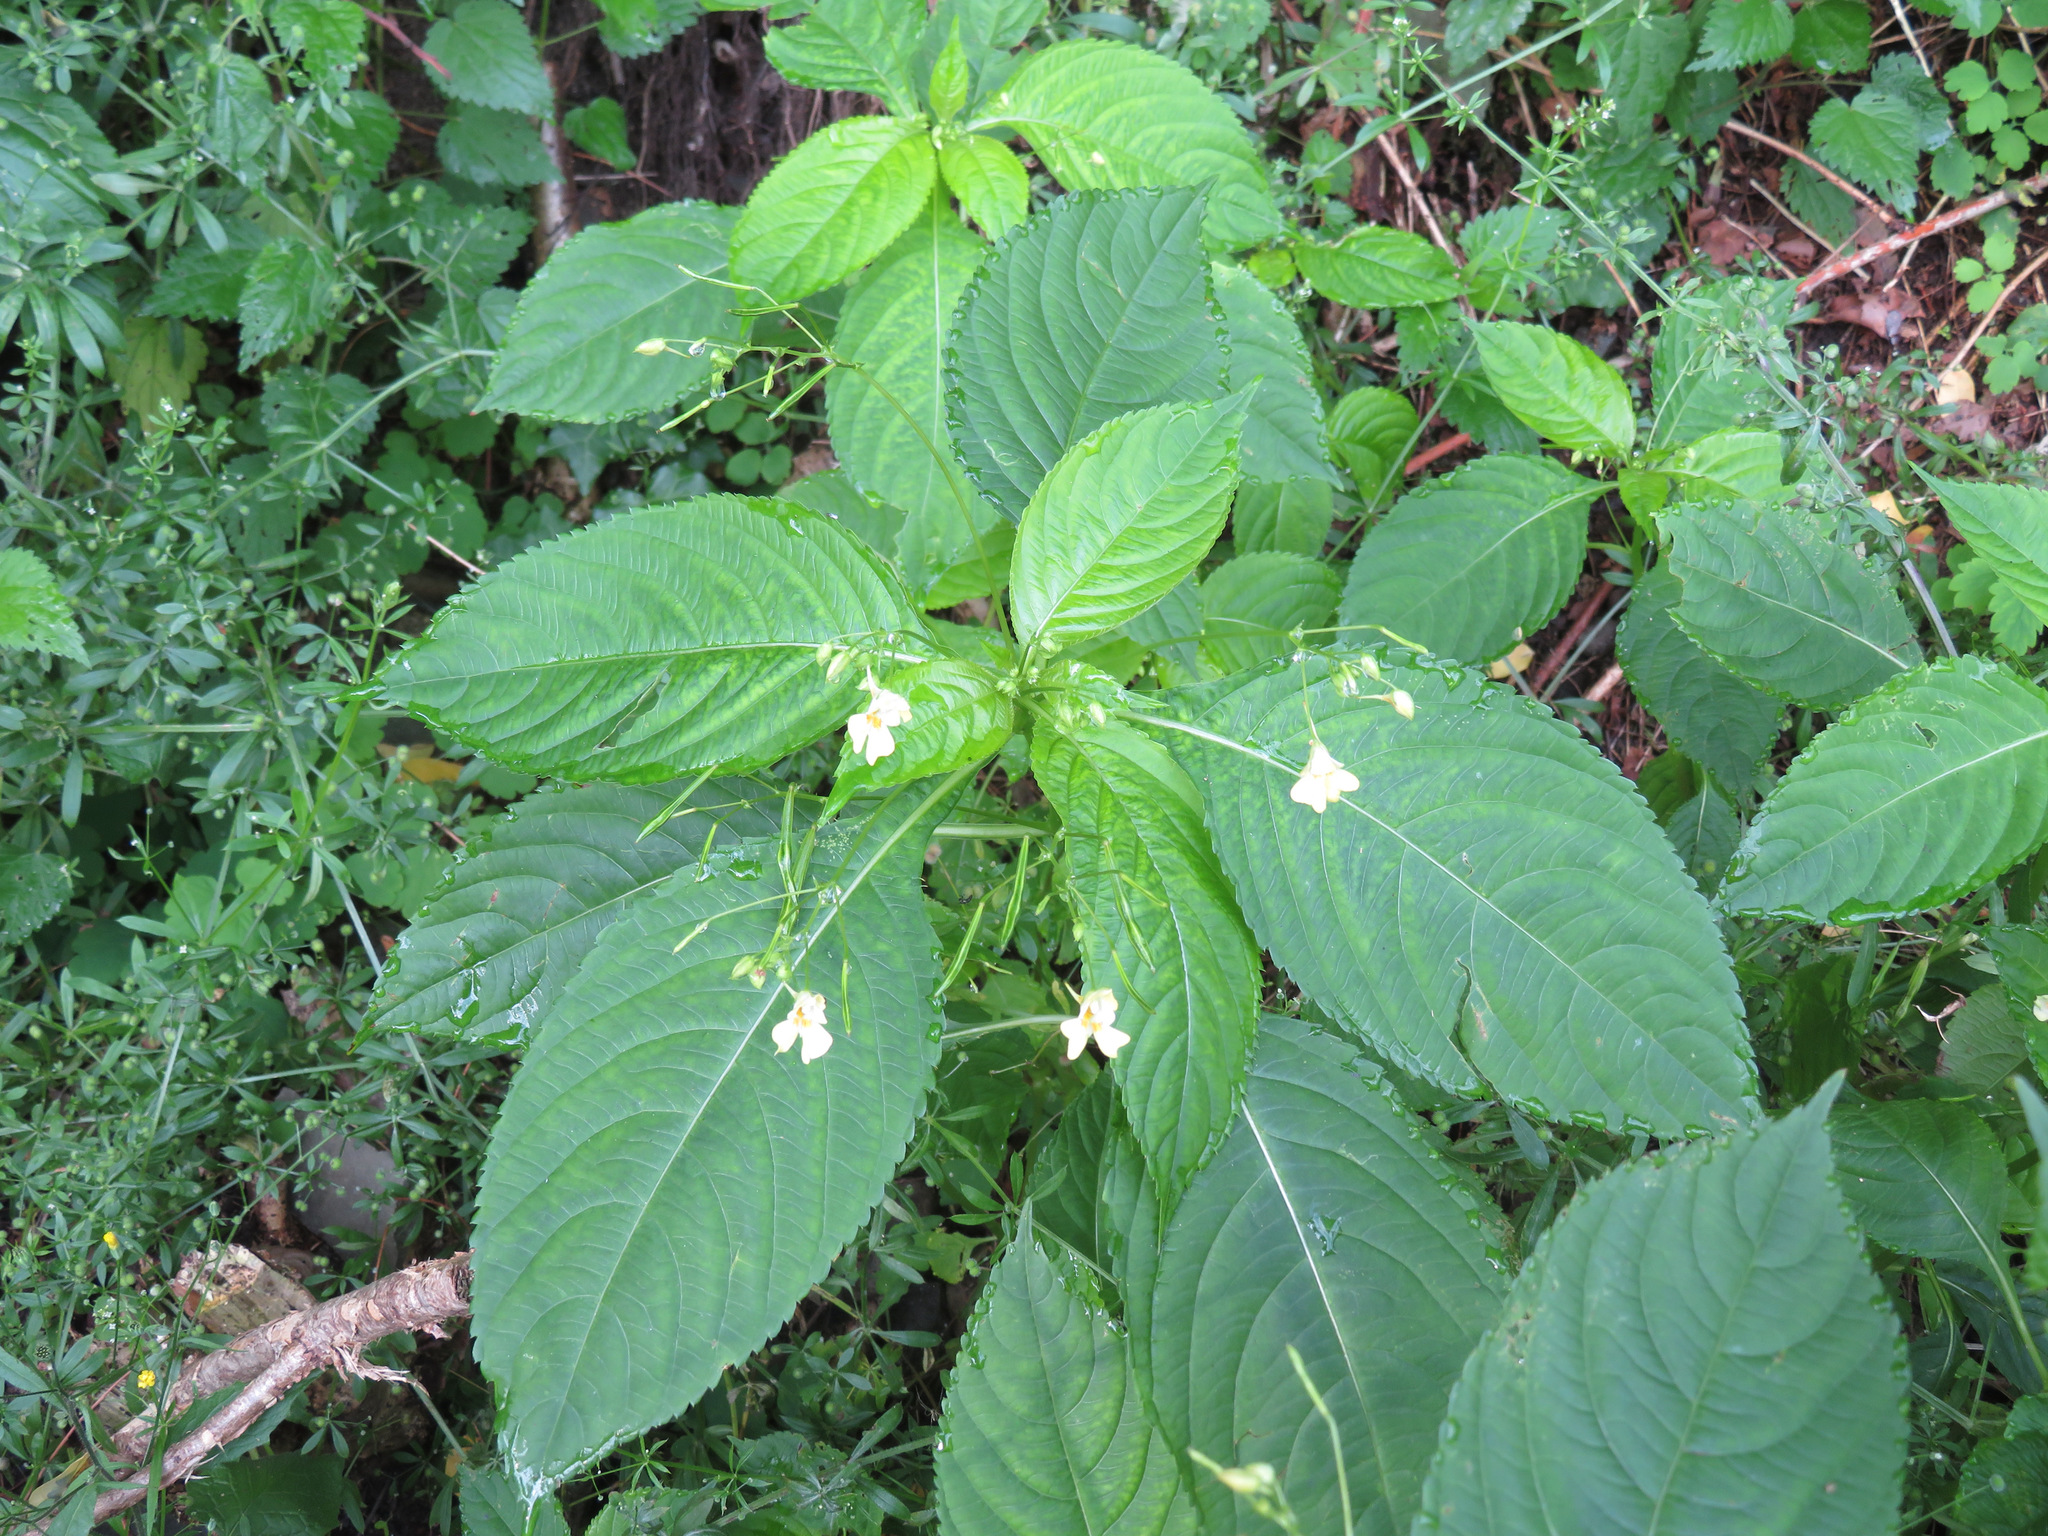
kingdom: Plantae
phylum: Tracheophyta
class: Magnoliopsida
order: Ericales
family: Balsaminaceae
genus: Impatiens
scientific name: Impatiens parviflora
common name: Small balsam
